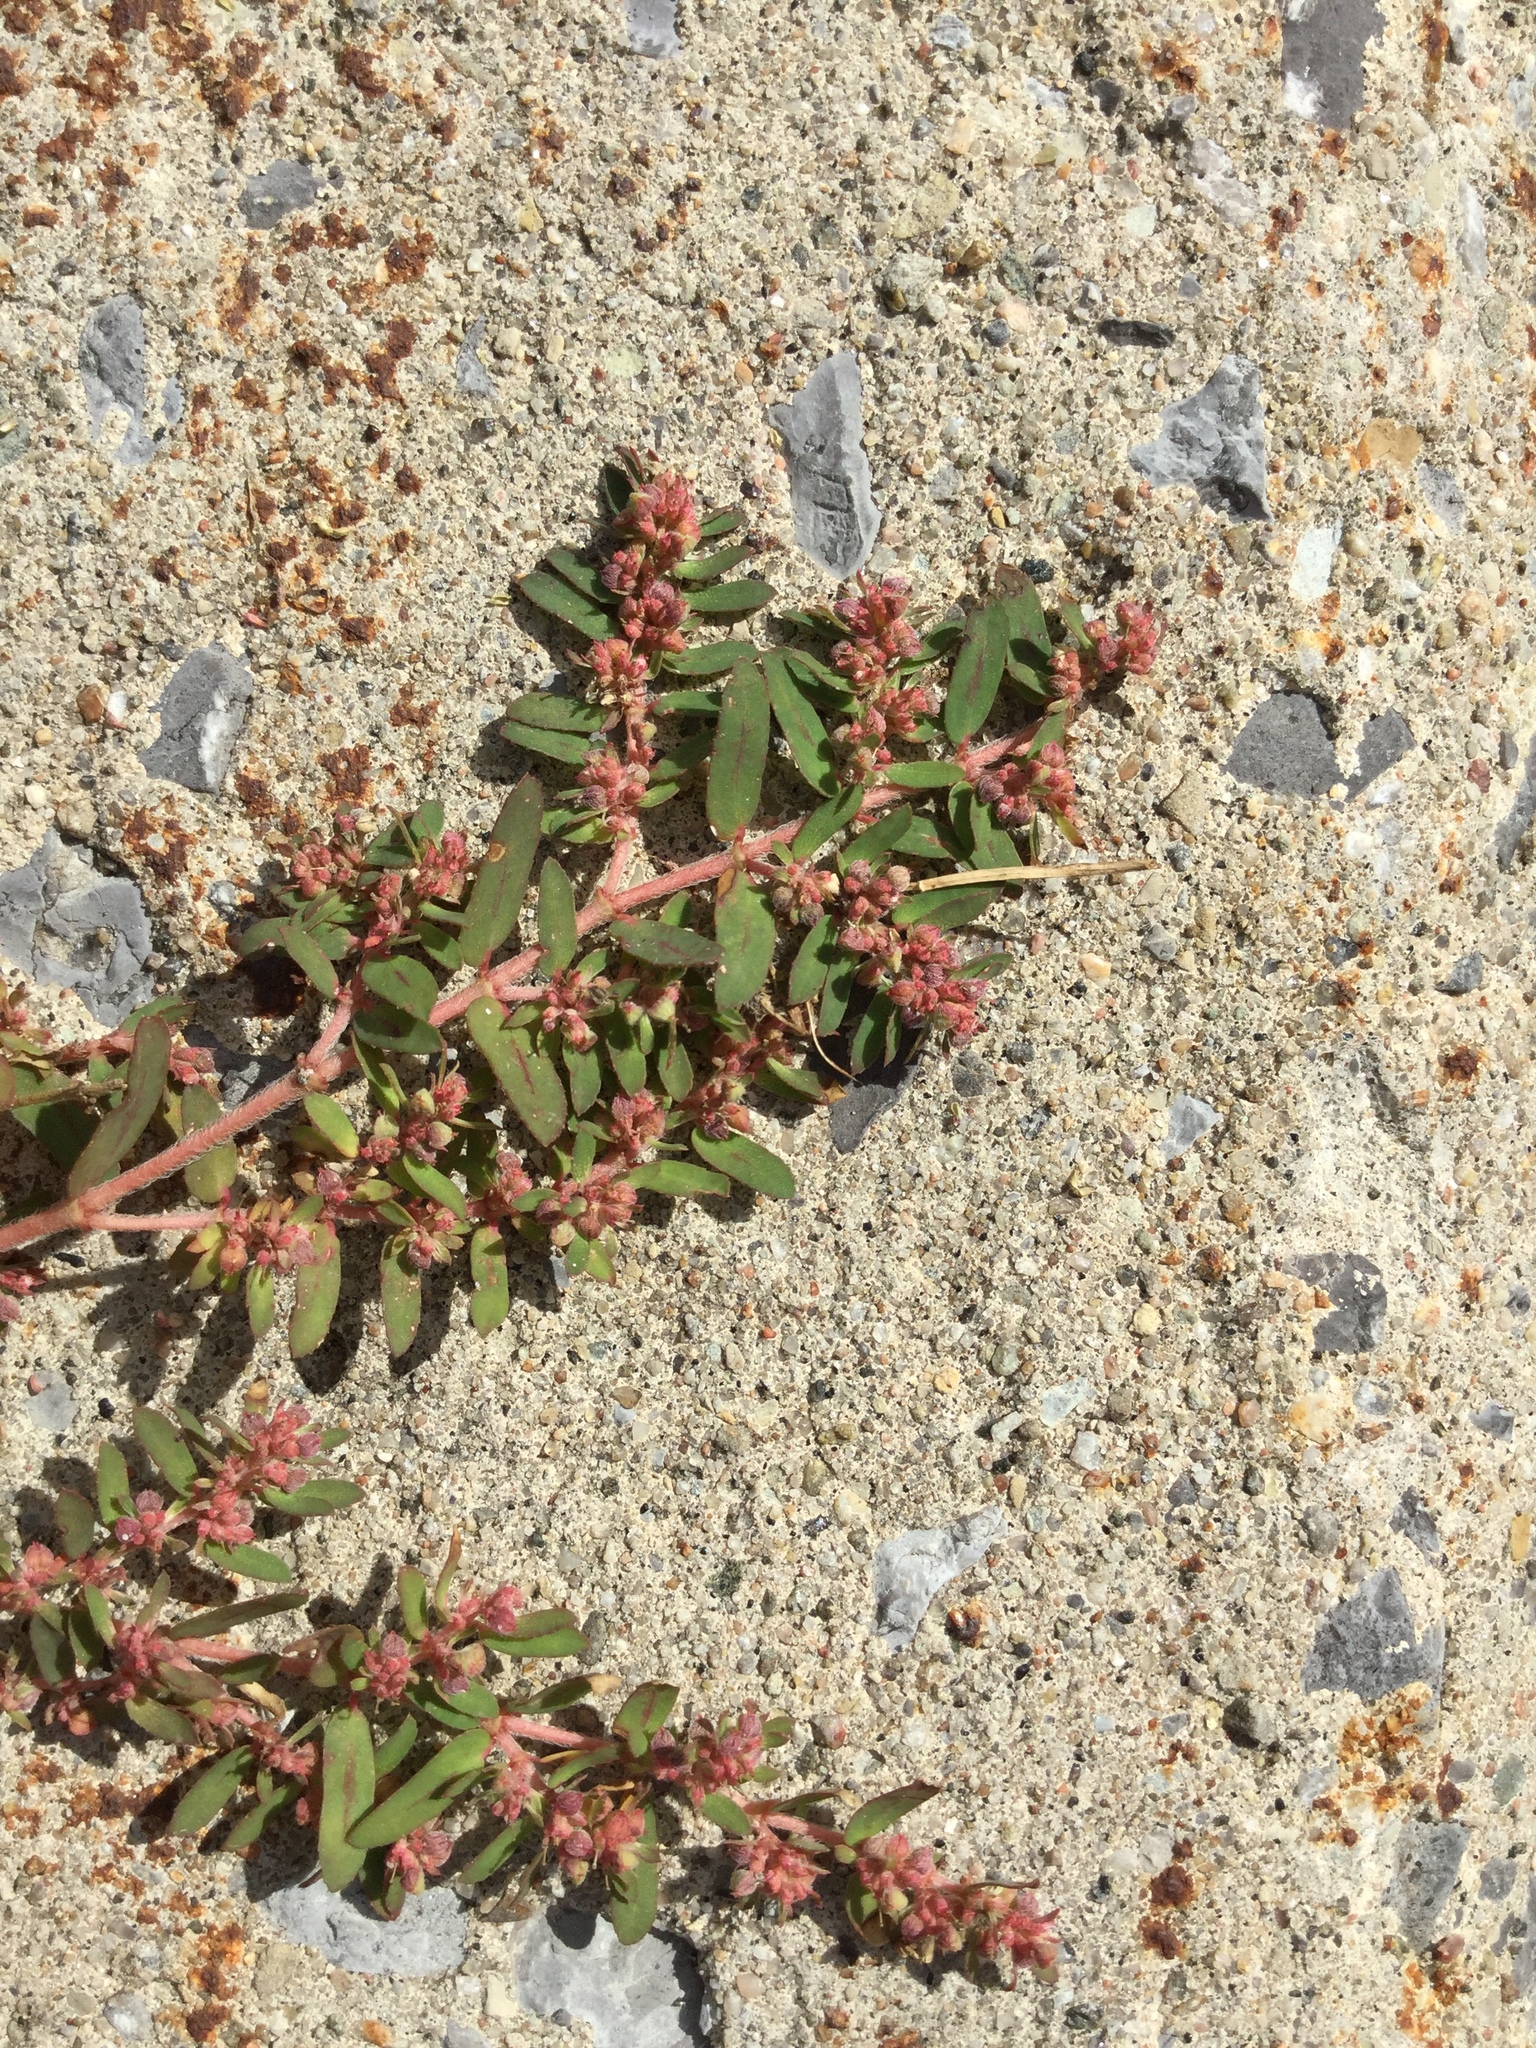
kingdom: Plantae
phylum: Tracheophyta
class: Magnoliopsida
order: Malpighiales
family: Euphorbiaceae
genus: Euphorbia
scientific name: Euphorbia maculata
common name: Spotted spurge
